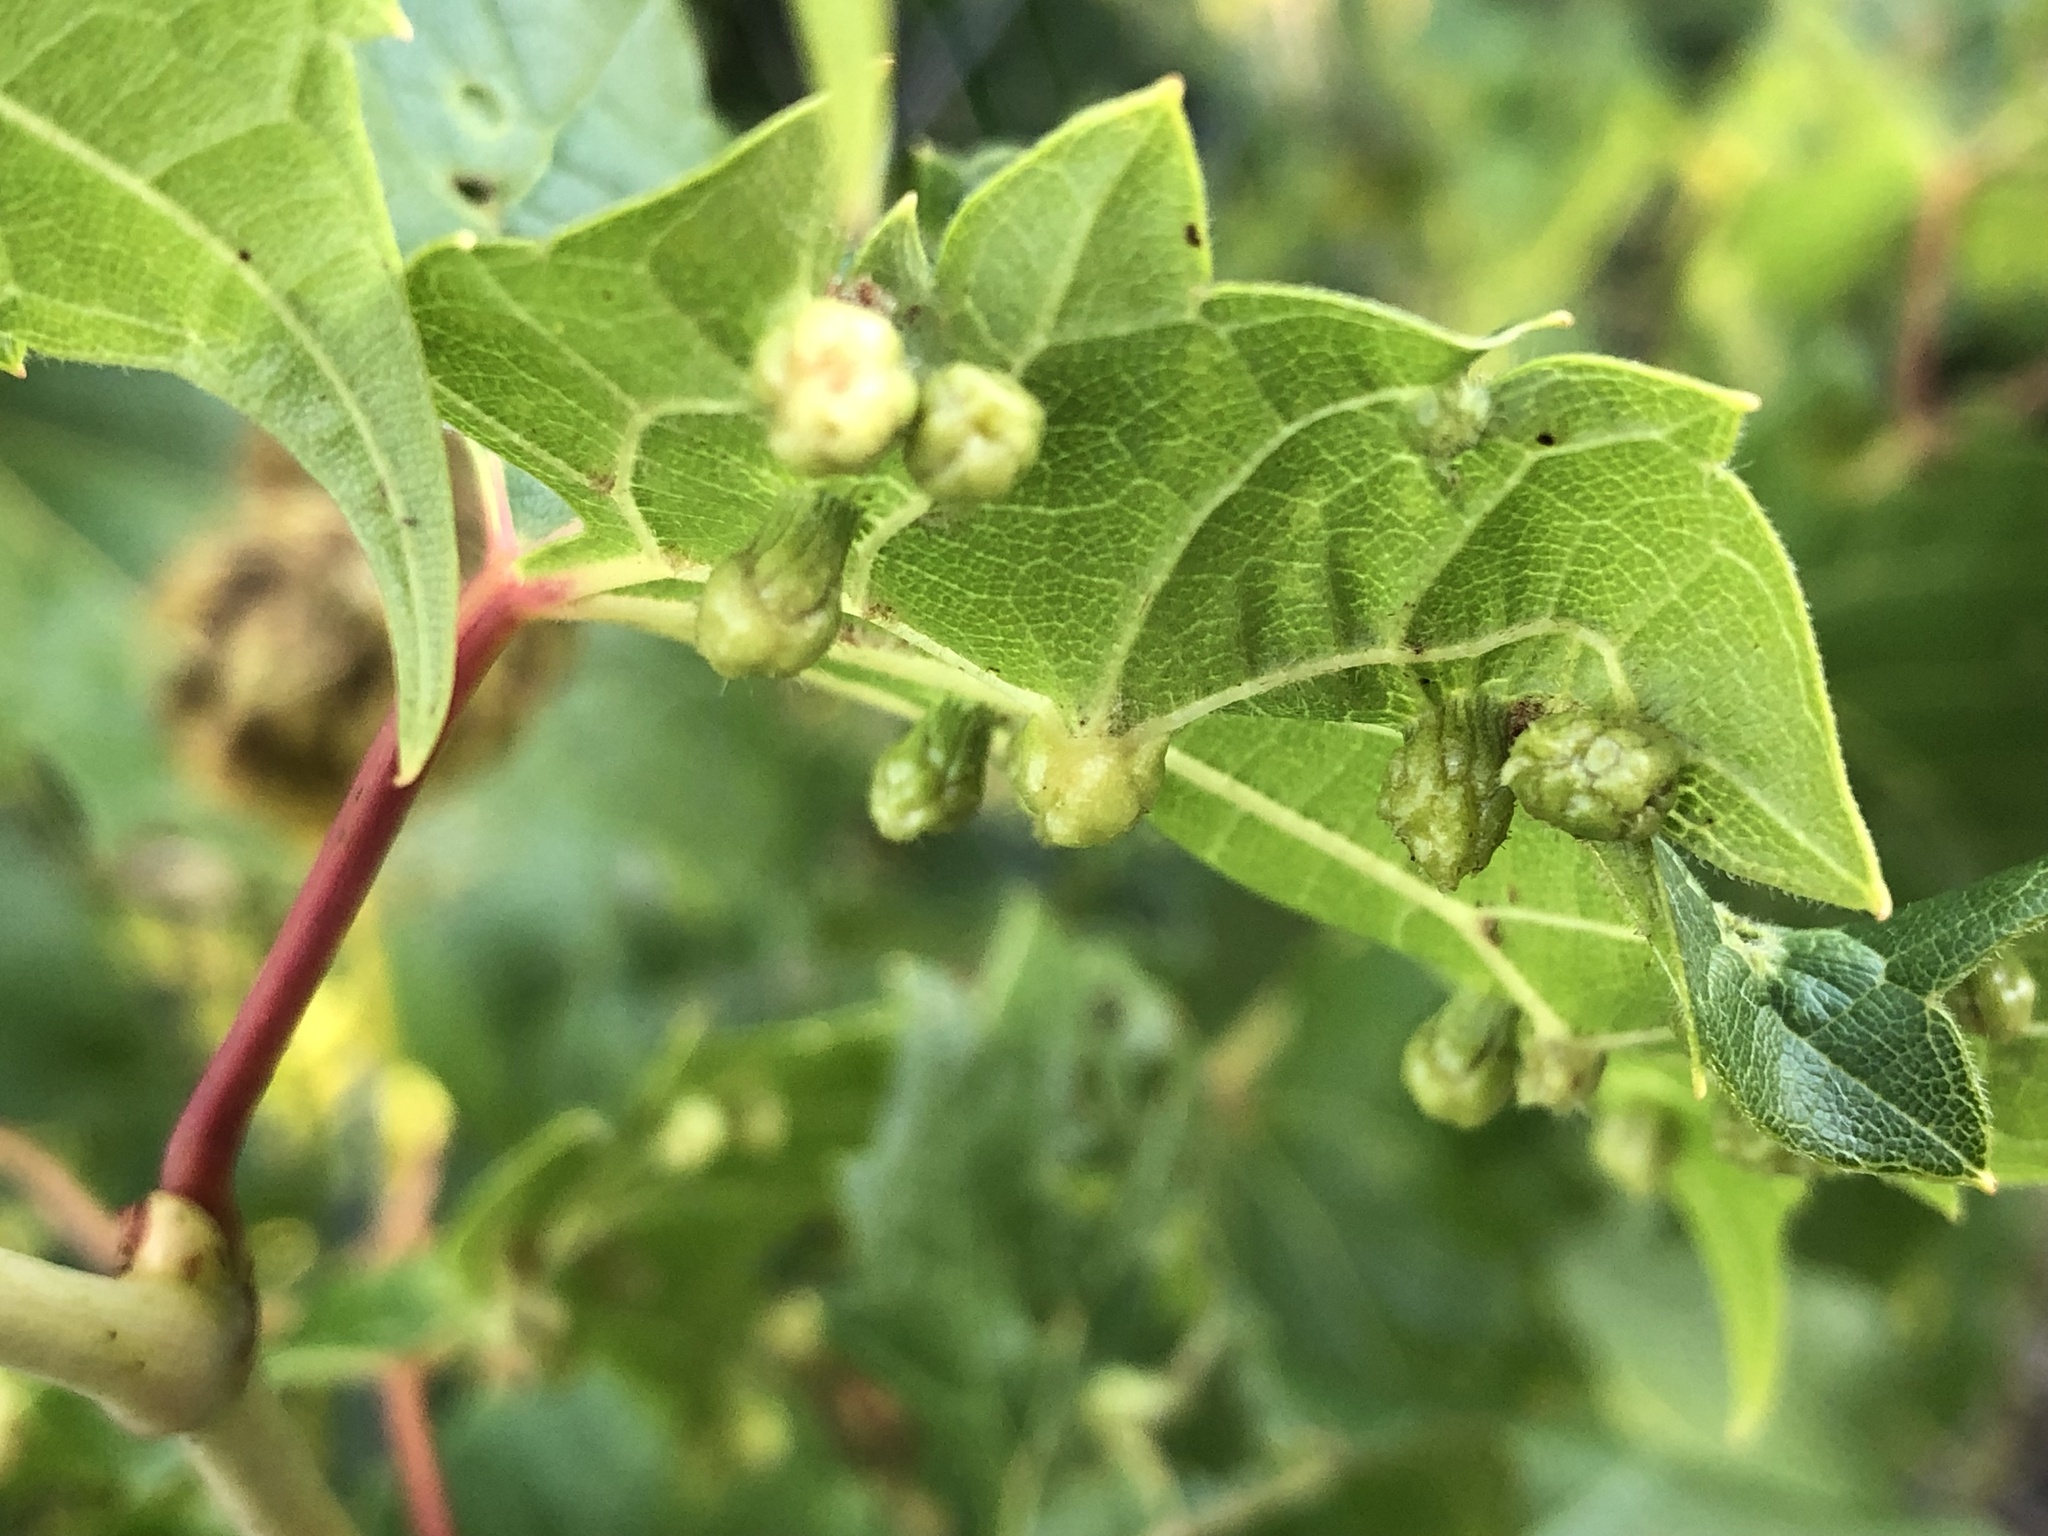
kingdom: Animalia
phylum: Arthropoda
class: Insecta
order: Hemiptera
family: Phylloxeridae
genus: Daktulosphaira
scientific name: Daktulosphaira vitifoliae
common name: Grape phylloxera
